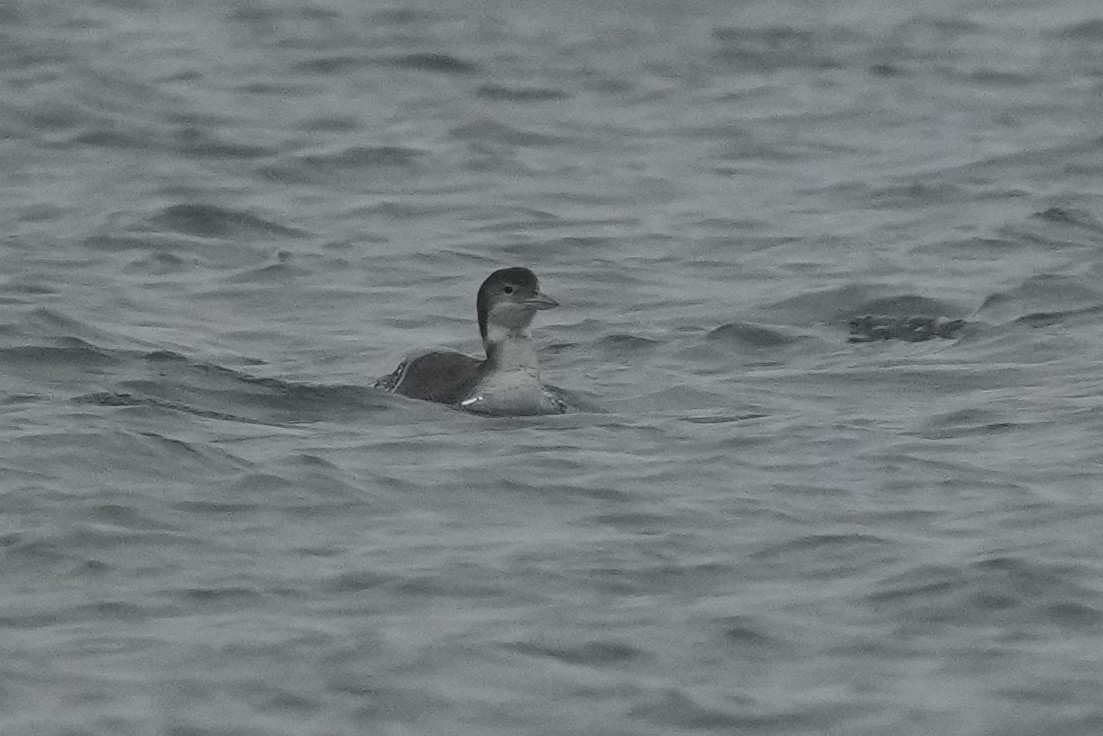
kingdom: Animalia
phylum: Chordata
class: Aves
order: Gaviiformes
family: Gaviidae
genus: Gavia
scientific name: Gavia immer
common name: Common loon
